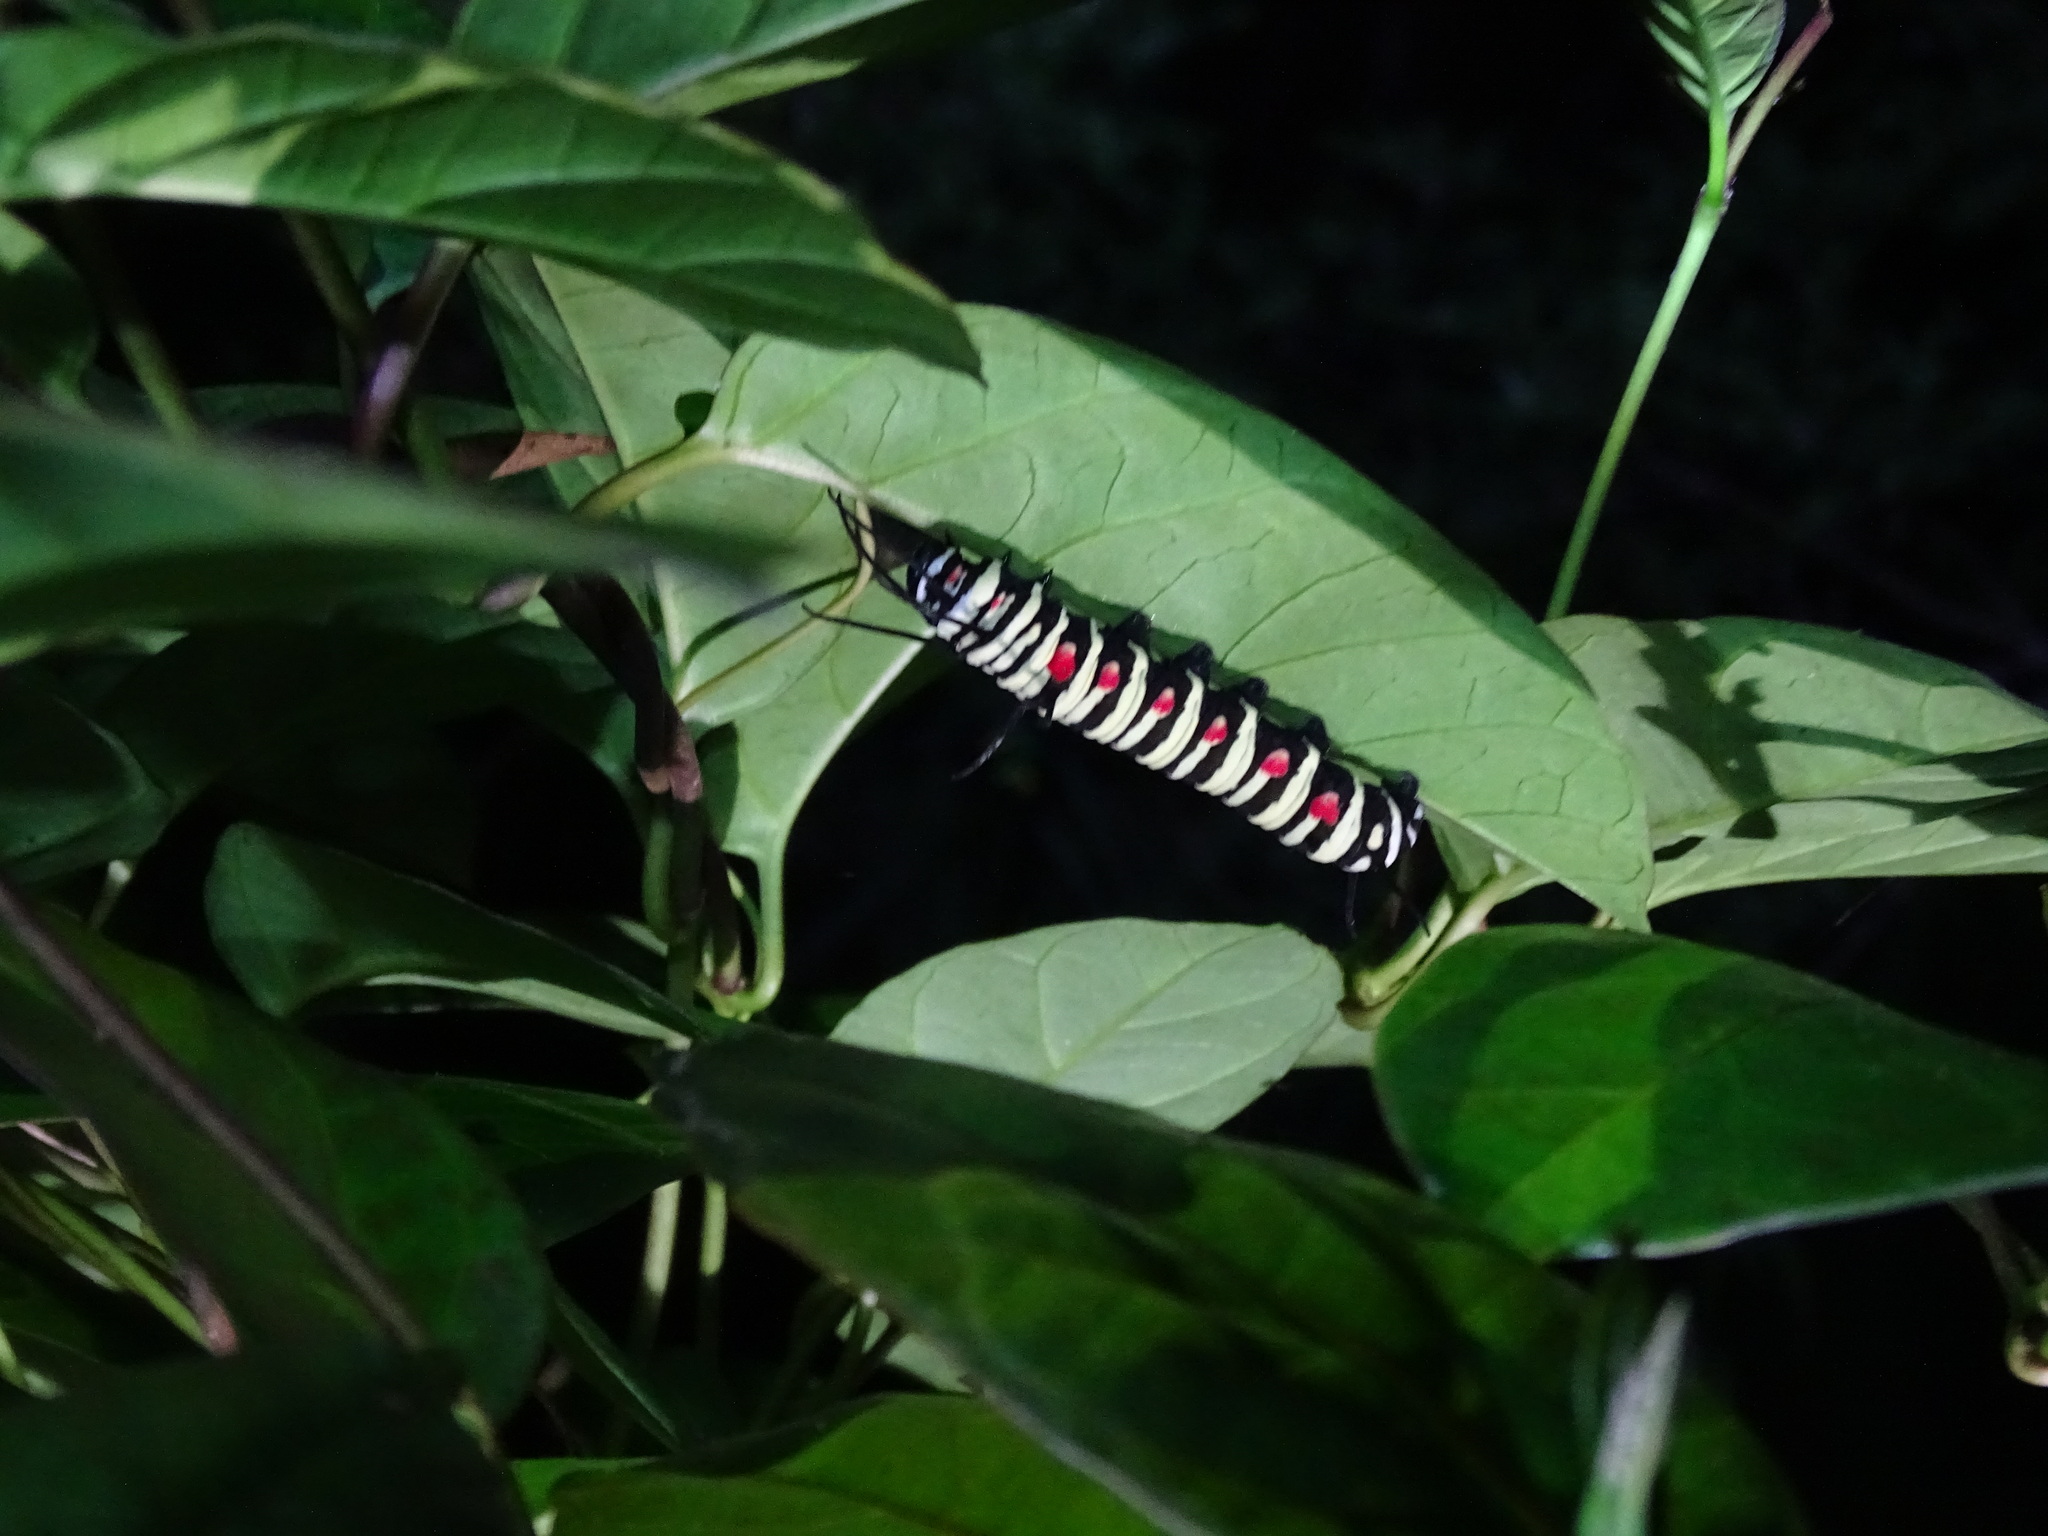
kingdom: Animalia
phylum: Arthropoda
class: Insecta
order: Lepidoptera
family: Nymphalidae
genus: Idea
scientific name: Idea leuconoe
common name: Rice paper butterfly
